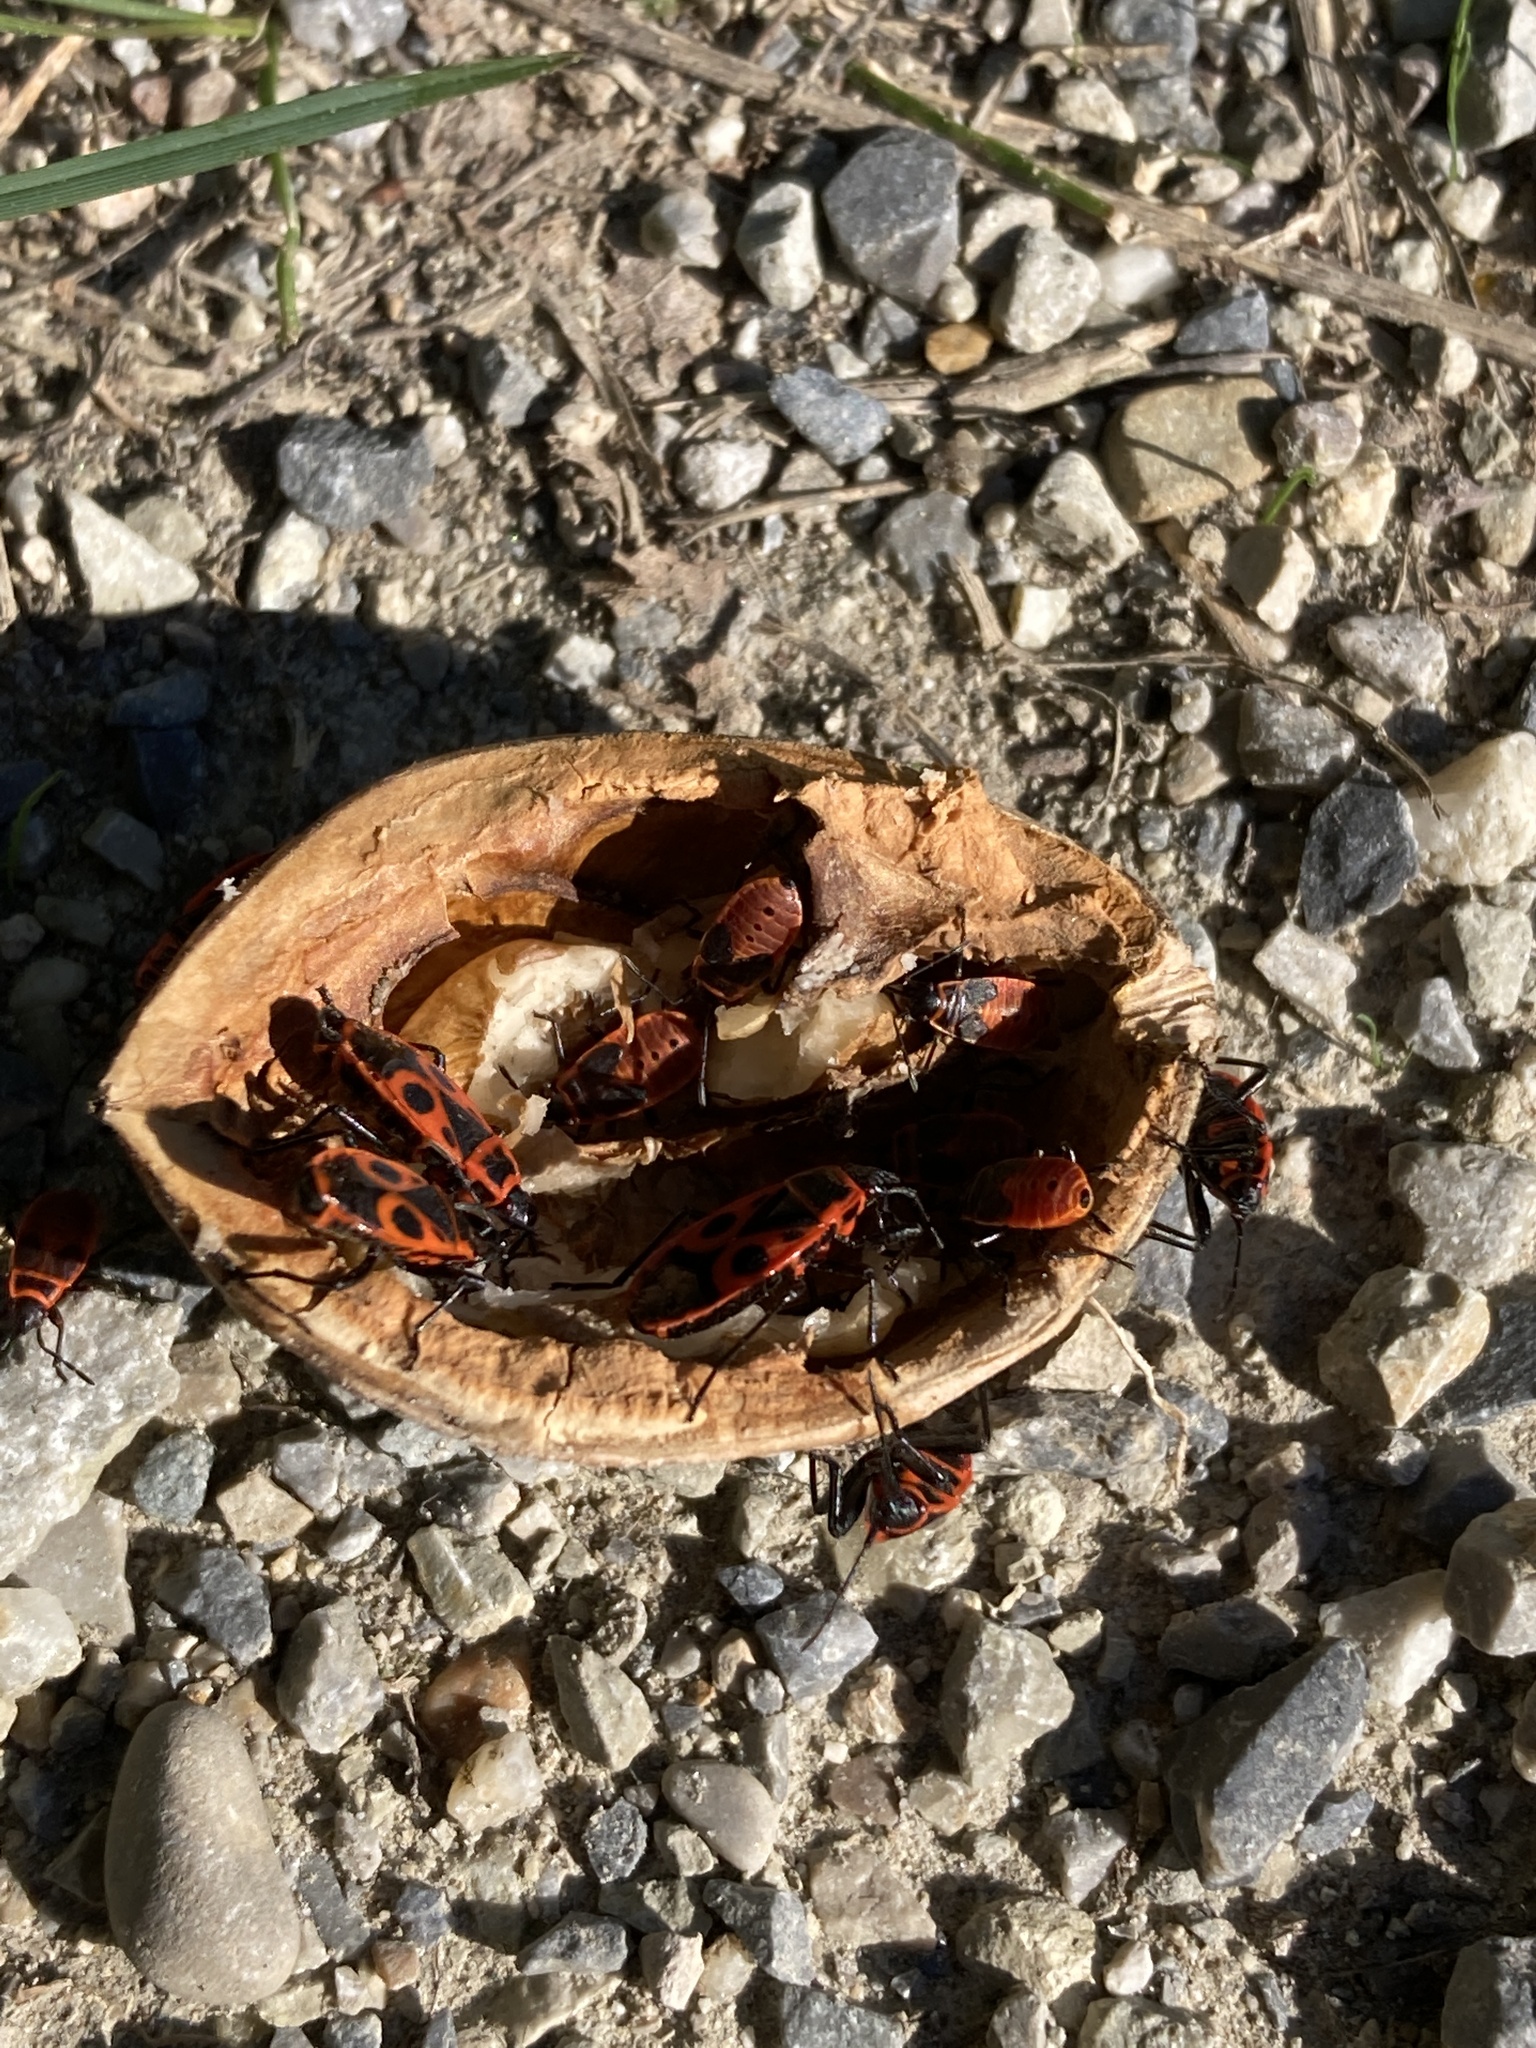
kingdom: Animalia
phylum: Arthropoda
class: Insecta
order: Hemiptera
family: Pyrrhocoridae
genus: Pyrrhocoris
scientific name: Pyrrhocoris apterus
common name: Firebug
